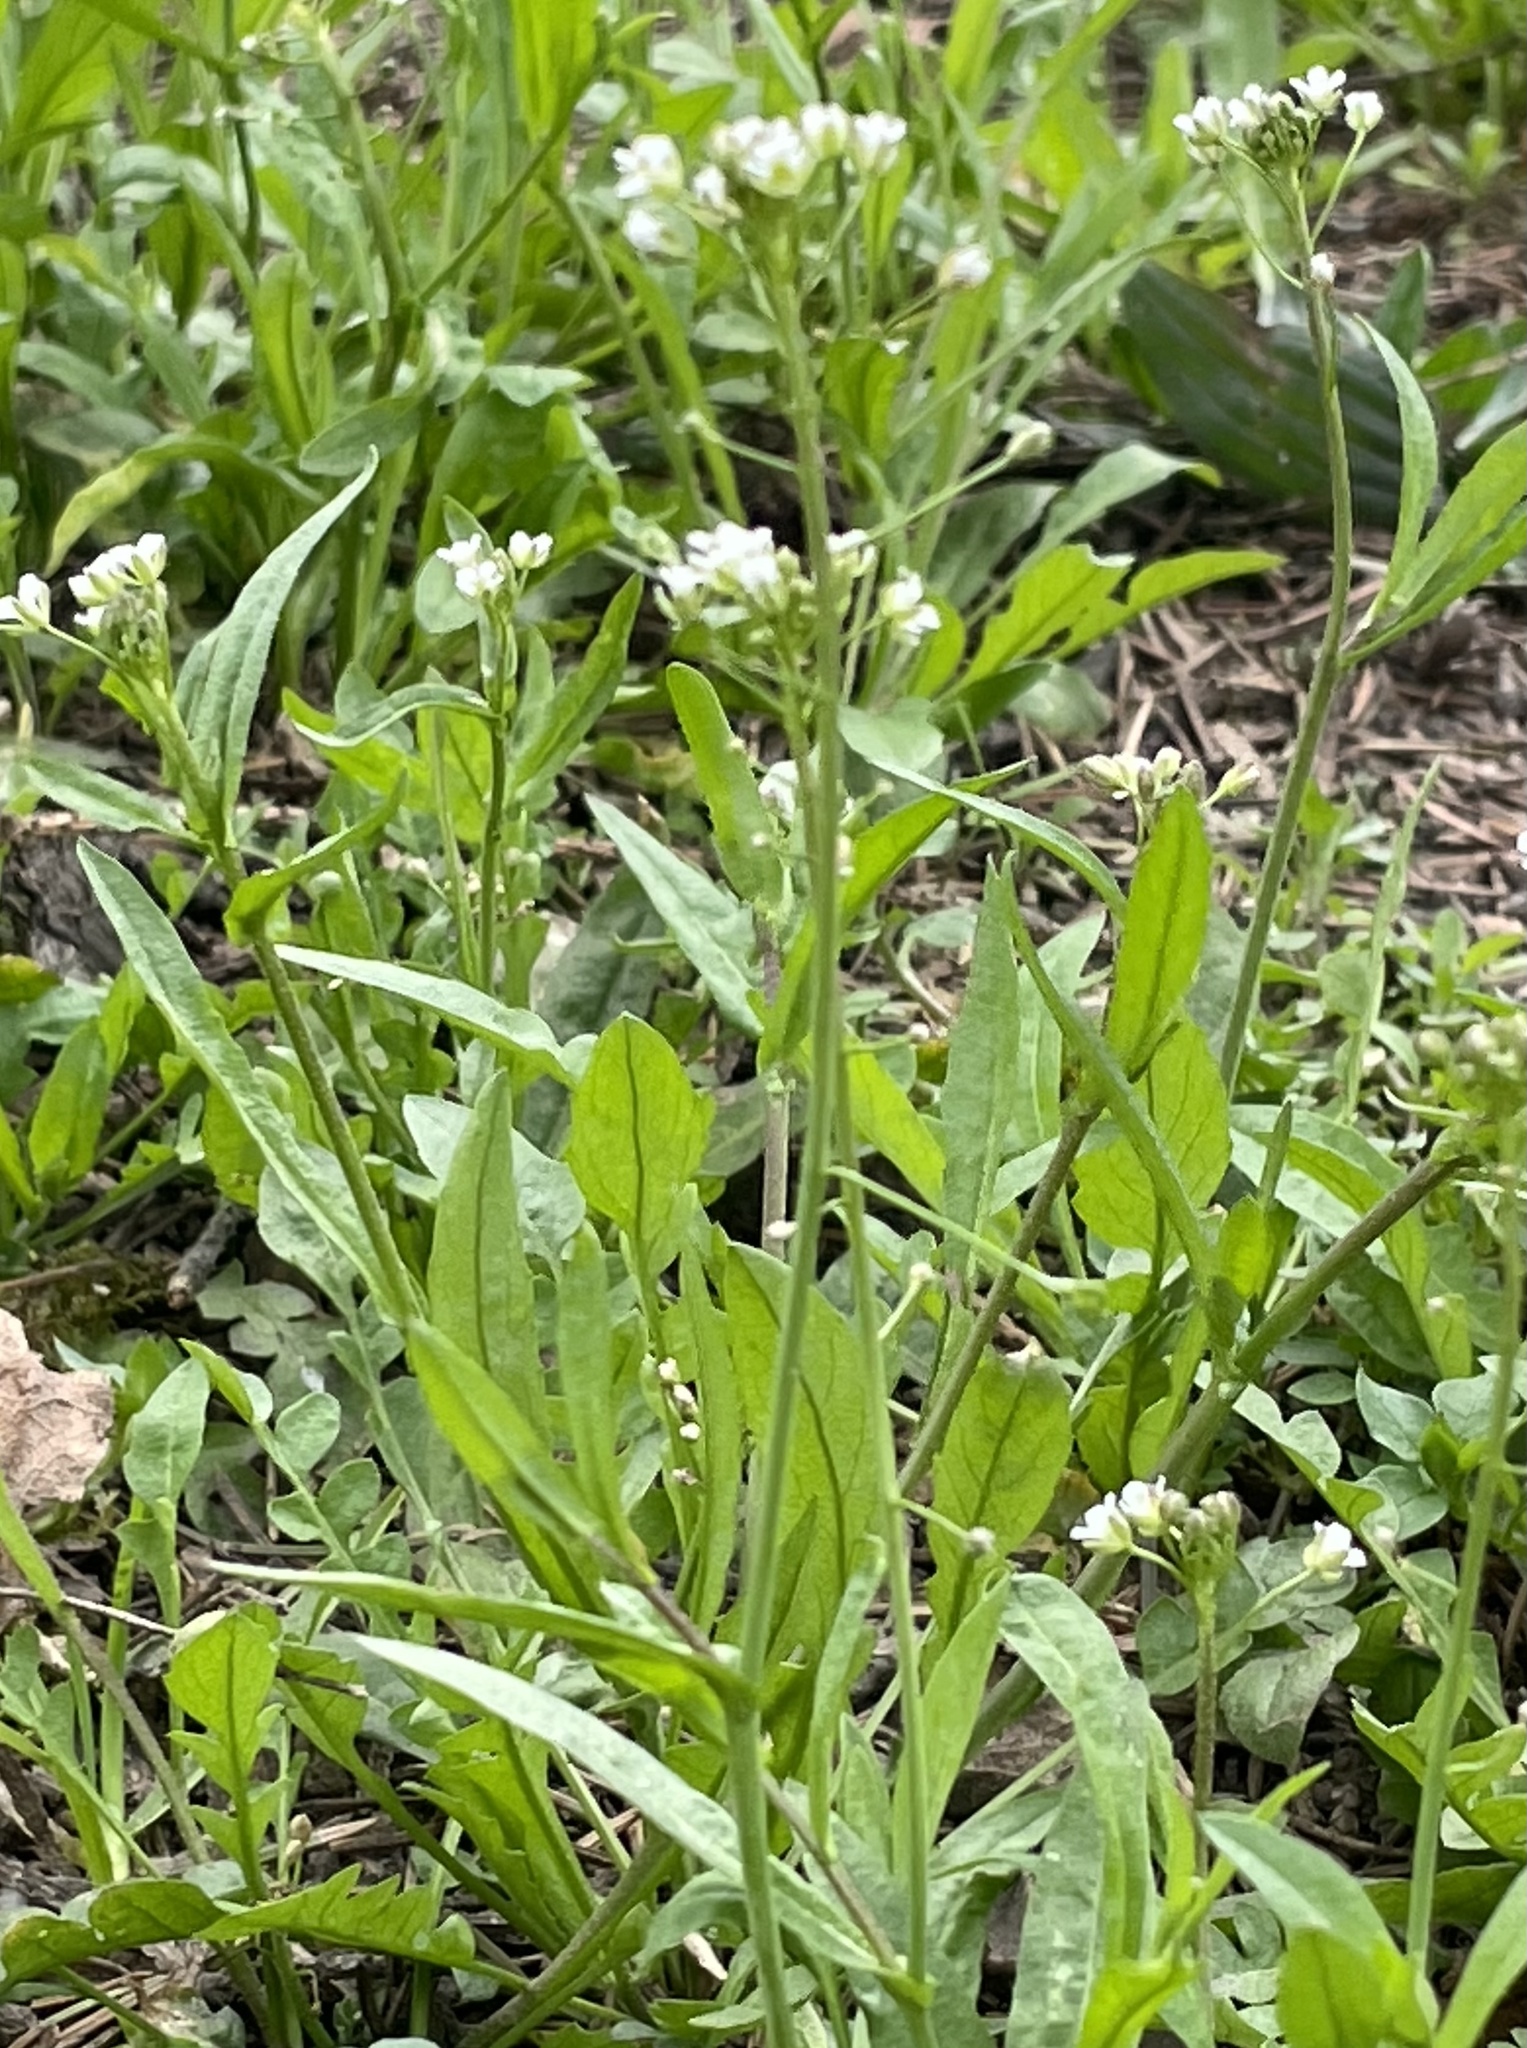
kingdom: Plantae
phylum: Tracheophyta
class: Magnoliopsida
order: Brassicales
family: Brassicaceae
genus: Capsella
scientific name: Capsella bursa-pastoris
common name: Shepherd's purse
